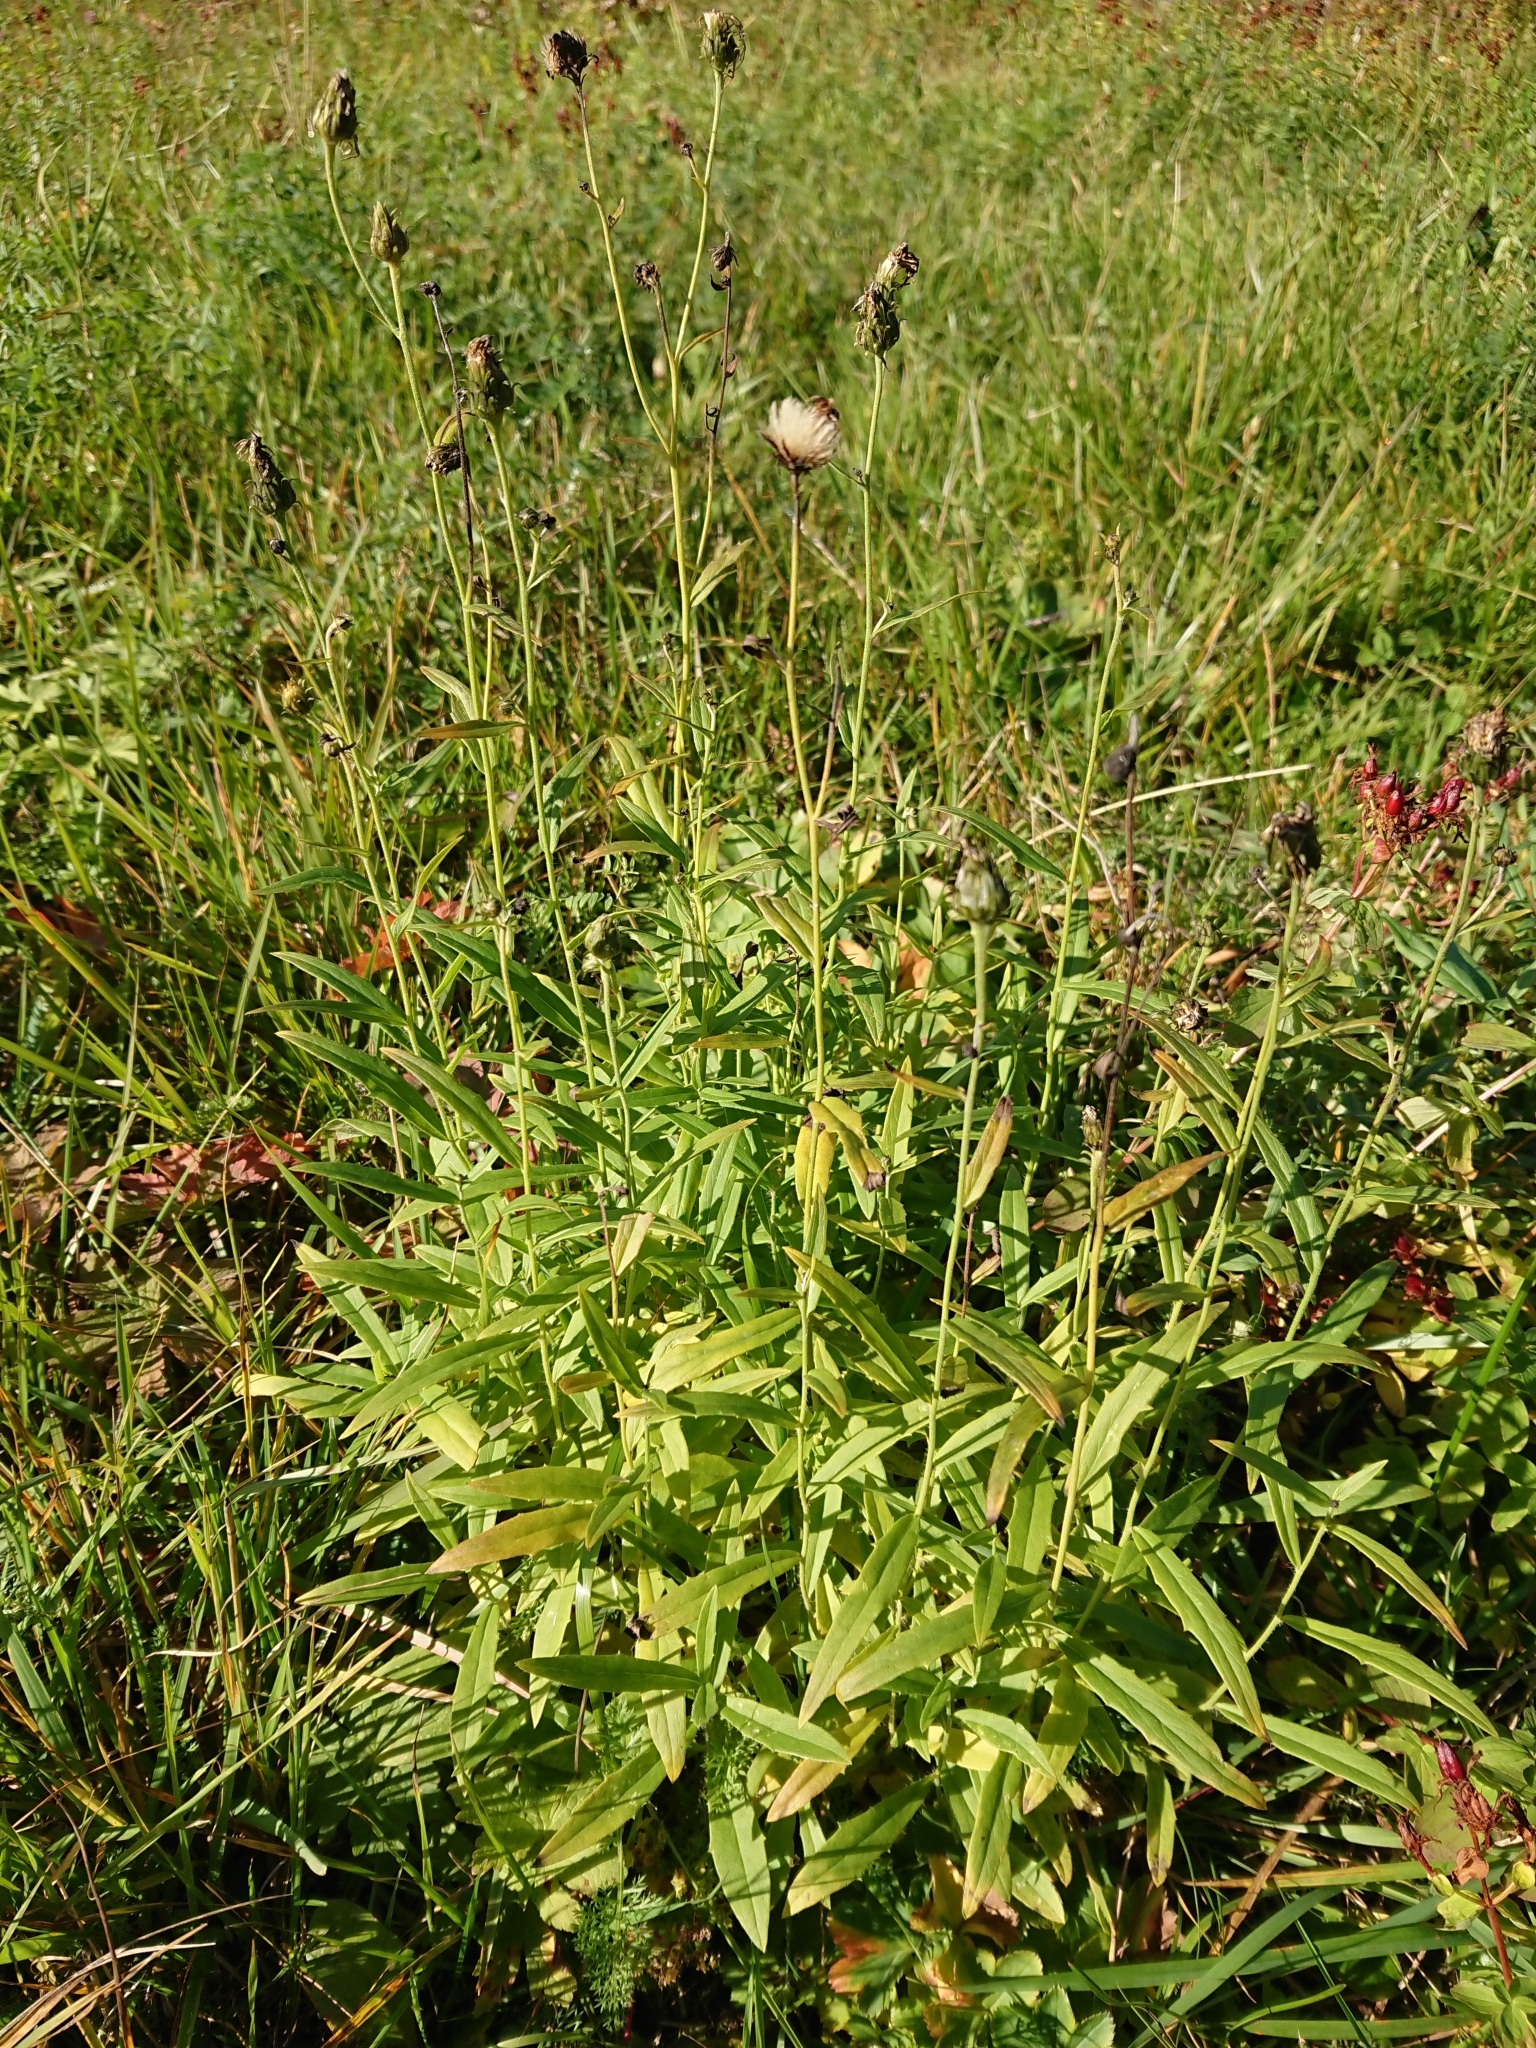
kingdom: Plantae
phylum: Tracheophyta
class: Magnoliopsida
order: Asterales
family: Asteraceae
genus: Hieracium
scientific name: Hieracium umbellatum
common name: Northern hawkweed
